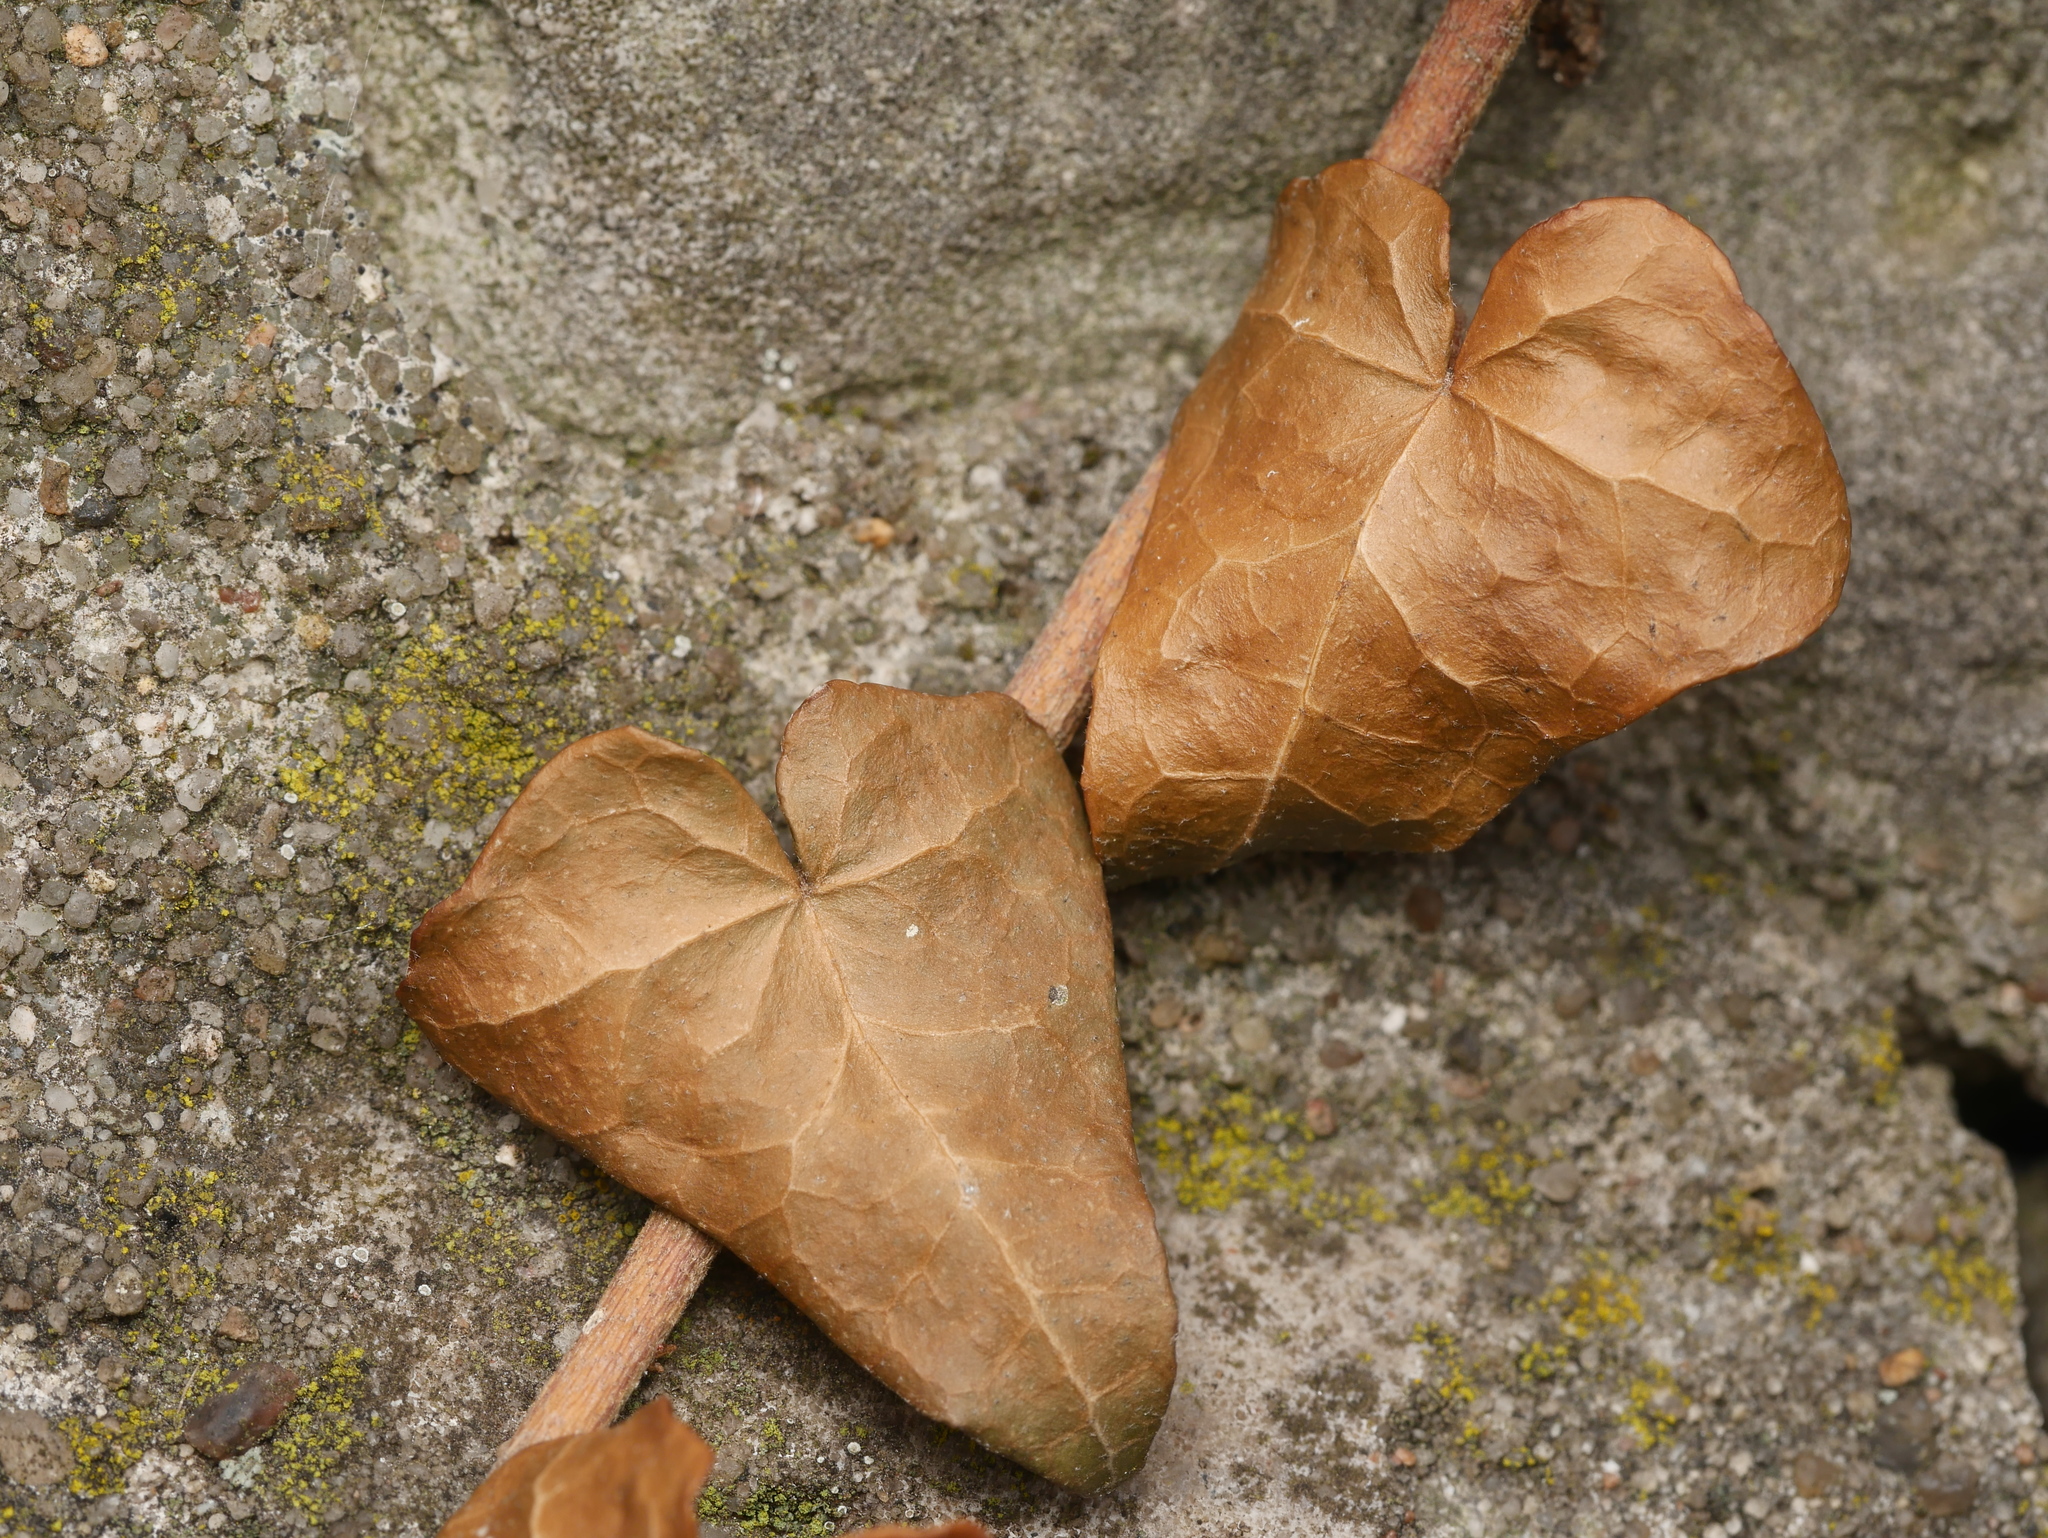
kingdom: Plantae
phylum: Tracheophyta
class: Magnoliopsida
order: Apiales
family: Araliaceae
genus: Hedera
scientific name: Hedera helix
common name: Ivy
